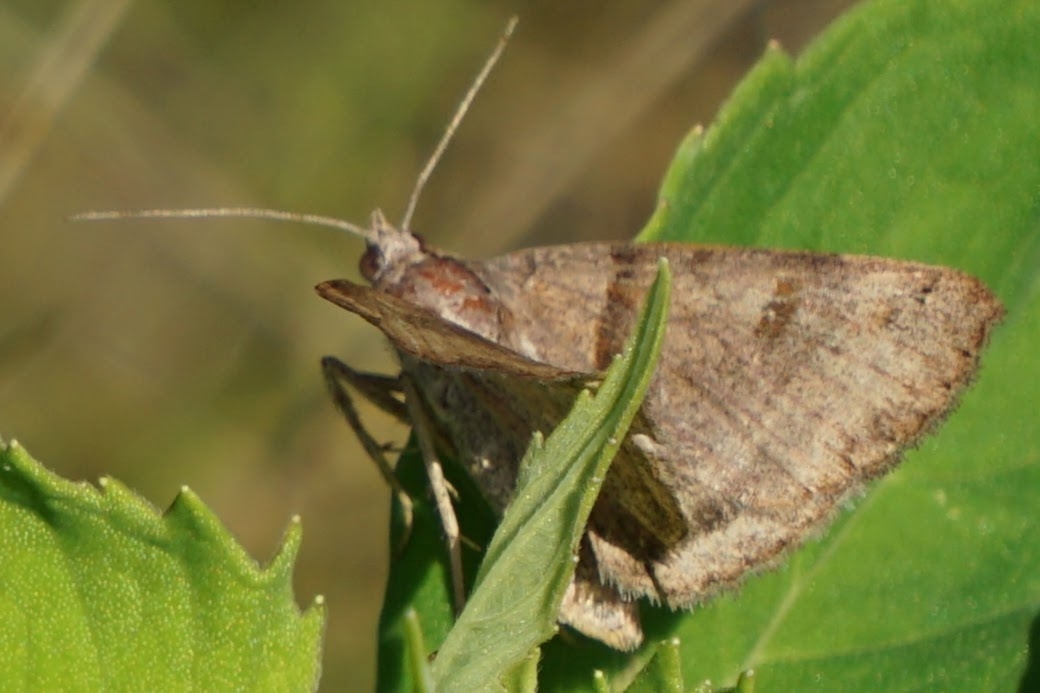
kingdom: Animalia
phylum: Arthropoda
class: Insecta
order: Lepidoptera
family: Erebidae
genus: Caenurgina
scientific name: Caenurgina crassiuscula
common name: Double-barred
